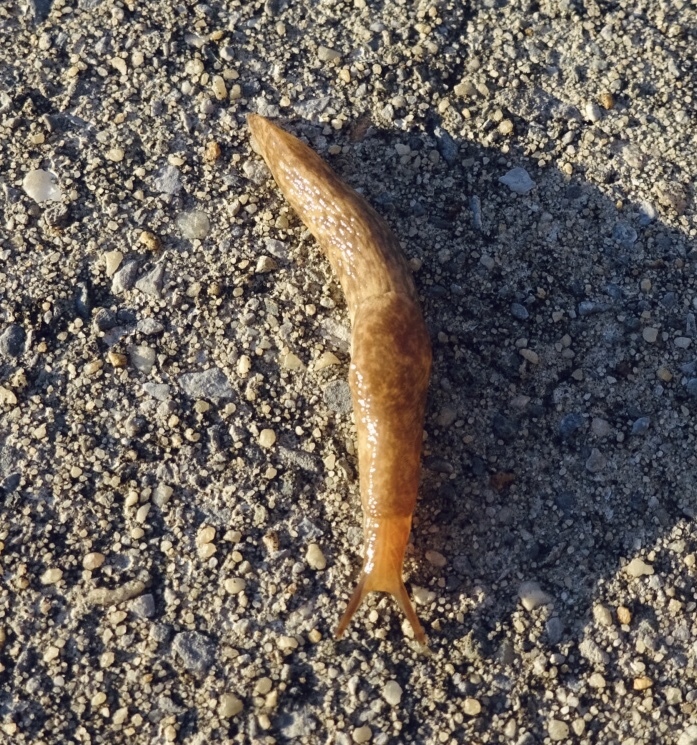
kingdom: Animalia
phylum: Mollusca
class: Gastropoda
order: Stylommatophora
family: Agriolimacidae
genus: Deroceras
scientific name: Deroceras reticulatum
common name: Gray field slug
